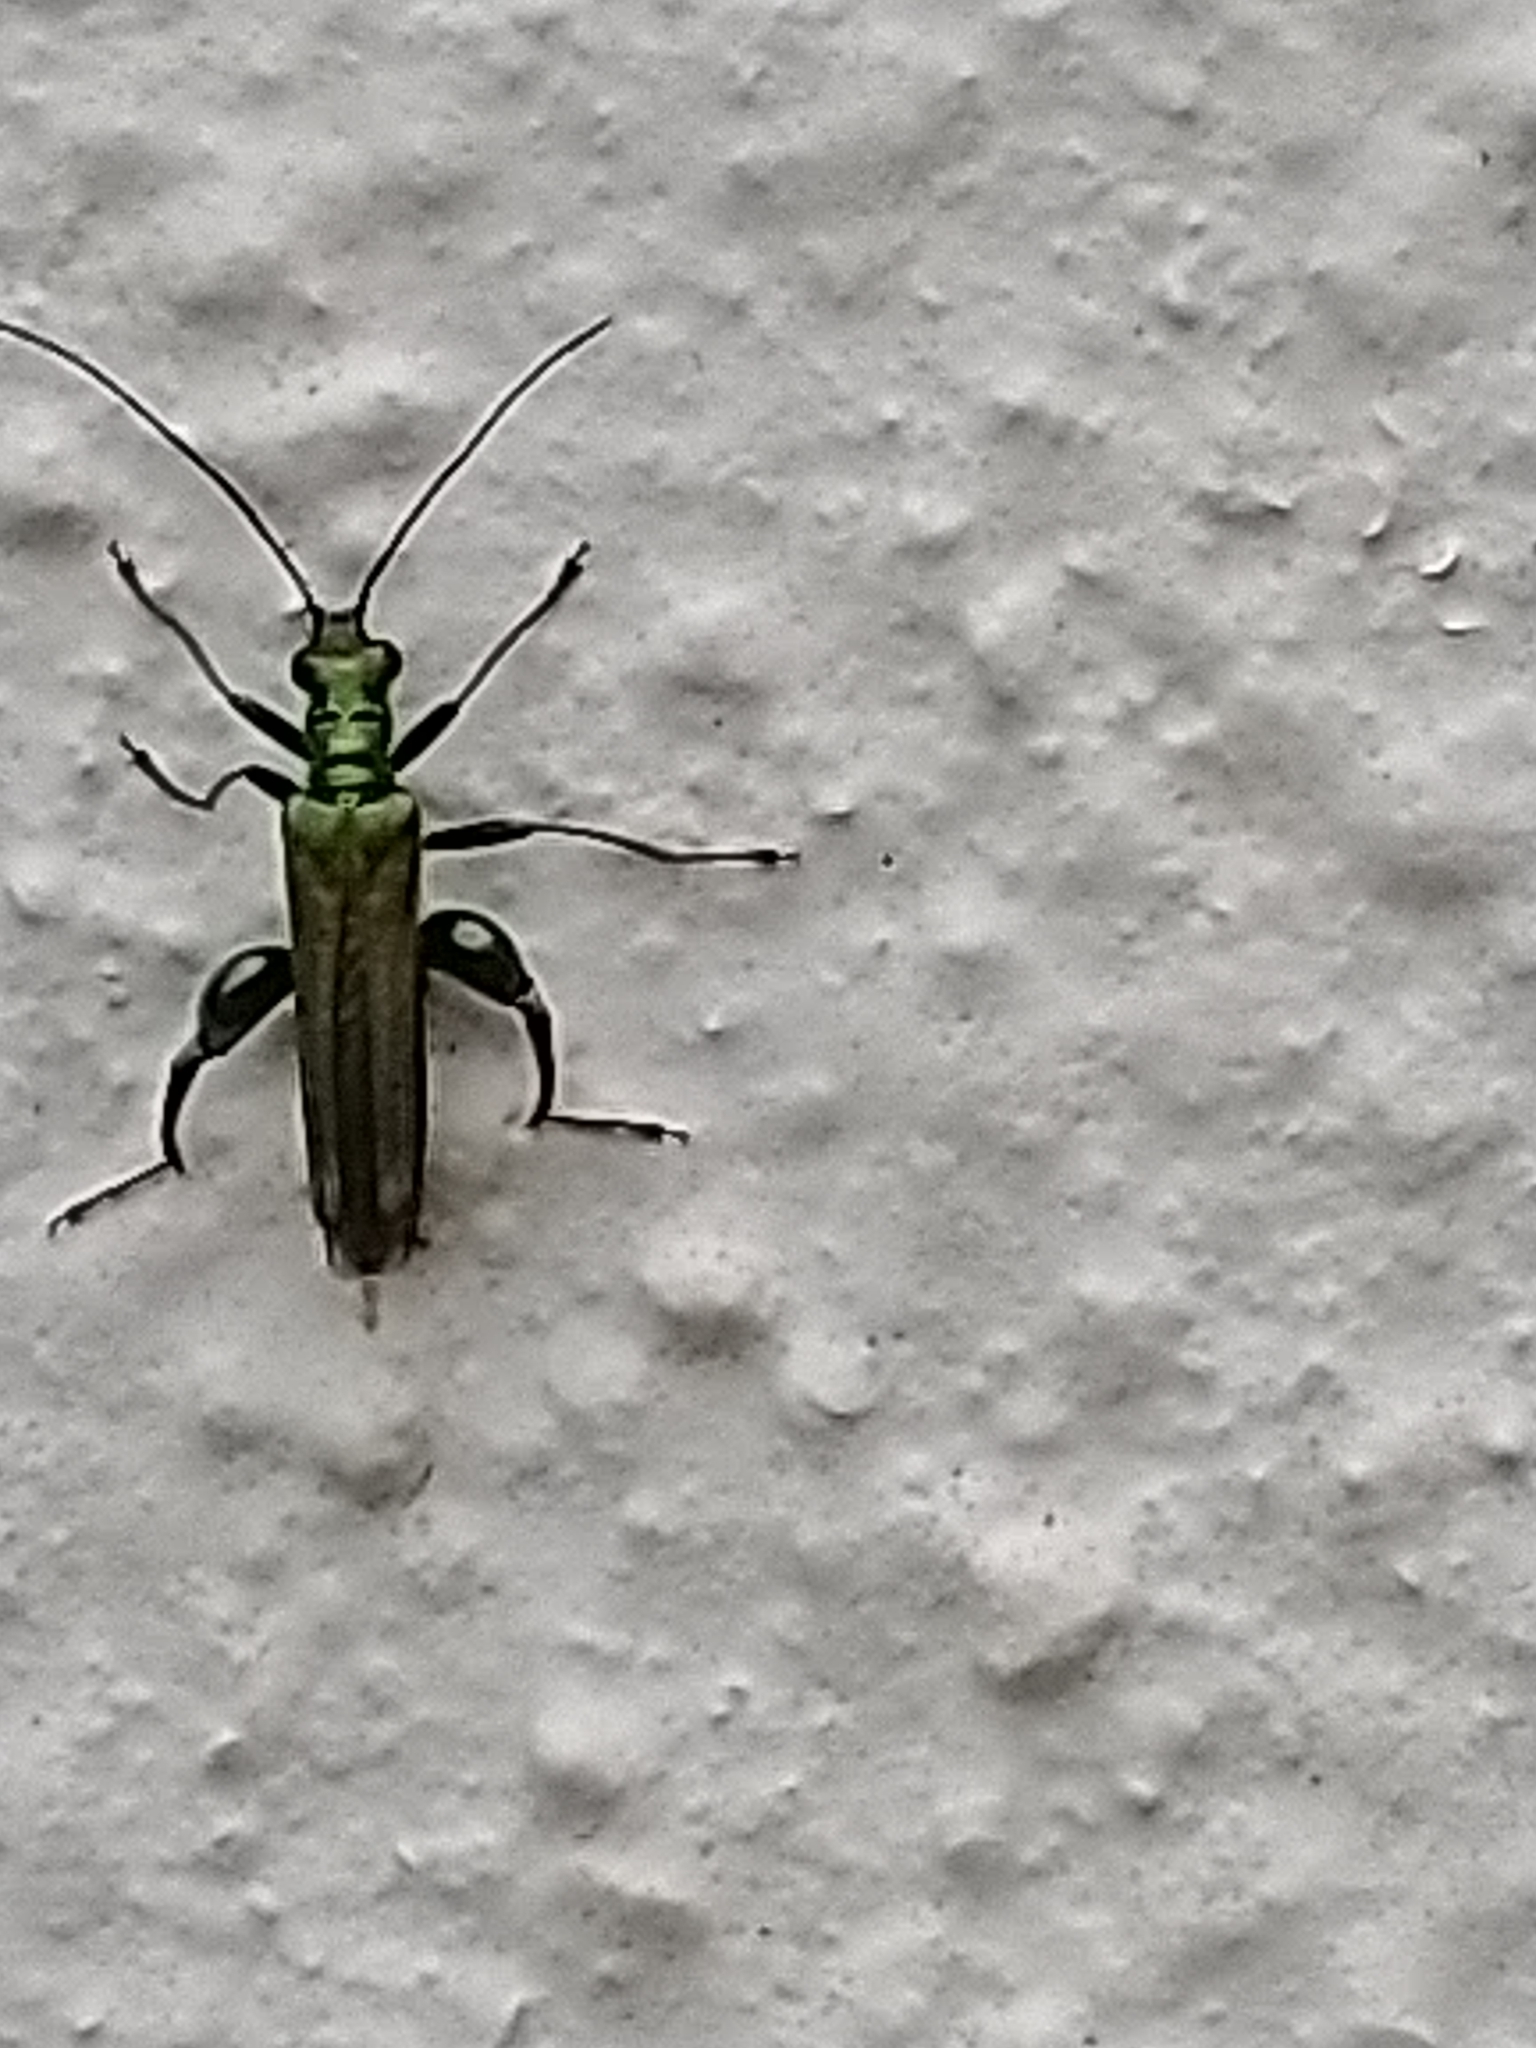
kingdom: Animalia
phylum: Arthropoda
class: Insecta
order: Coleoptera
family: Oedemeridae
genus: Oedemera
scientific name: Oedemera nobilis
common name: Swollen-thighed beetle
